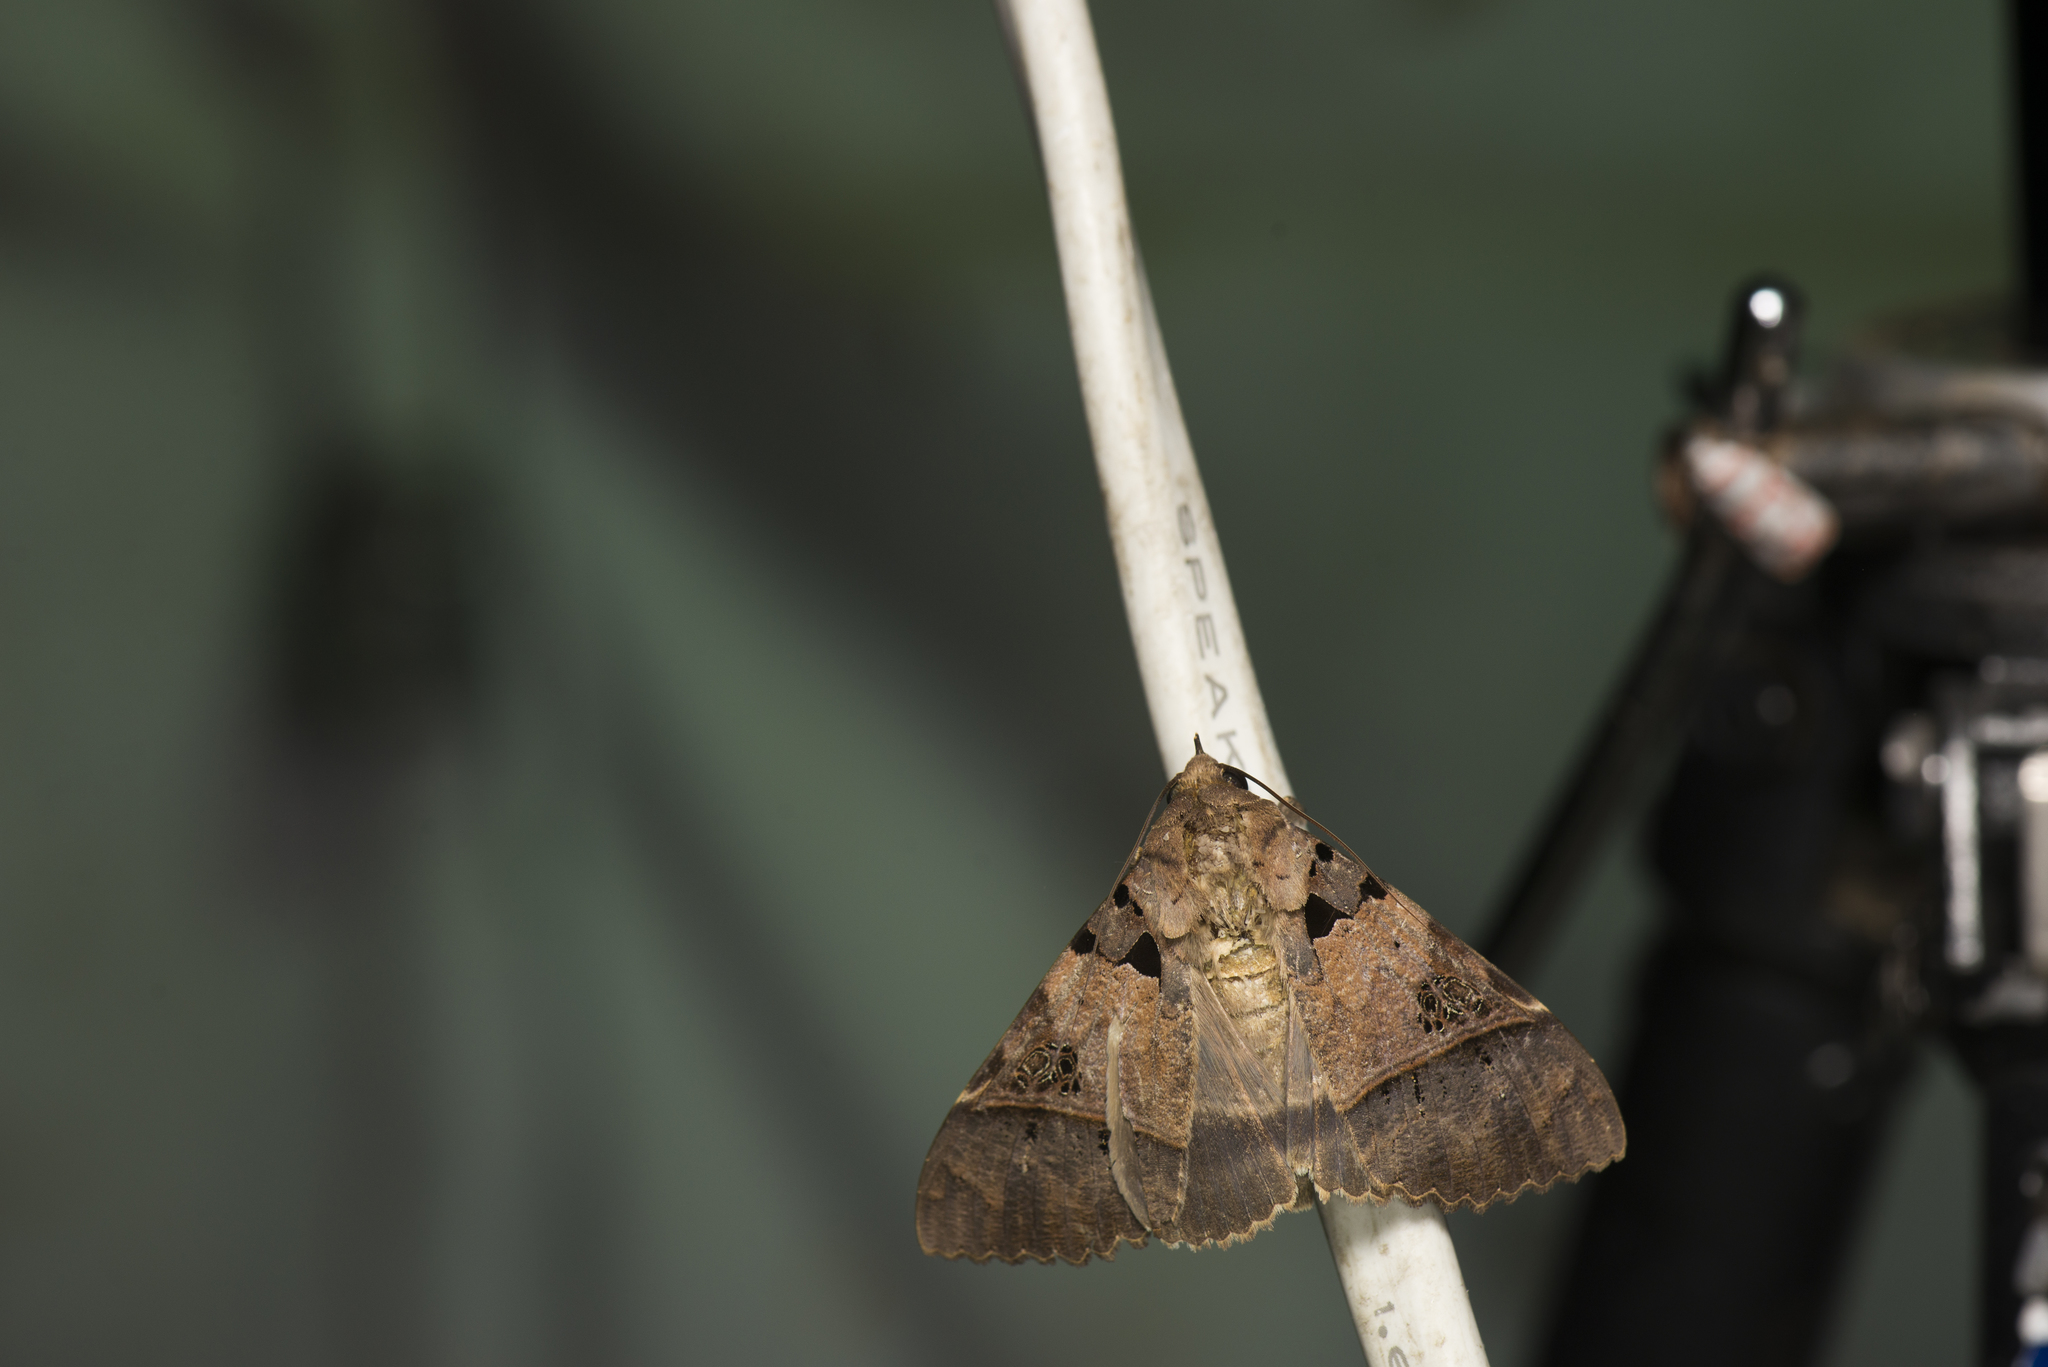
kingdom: Animalia
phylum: Arthropoda
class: Insecta
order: Lepidoptera
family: Erebidae
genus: Serrodes
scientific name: Serrodes campana
